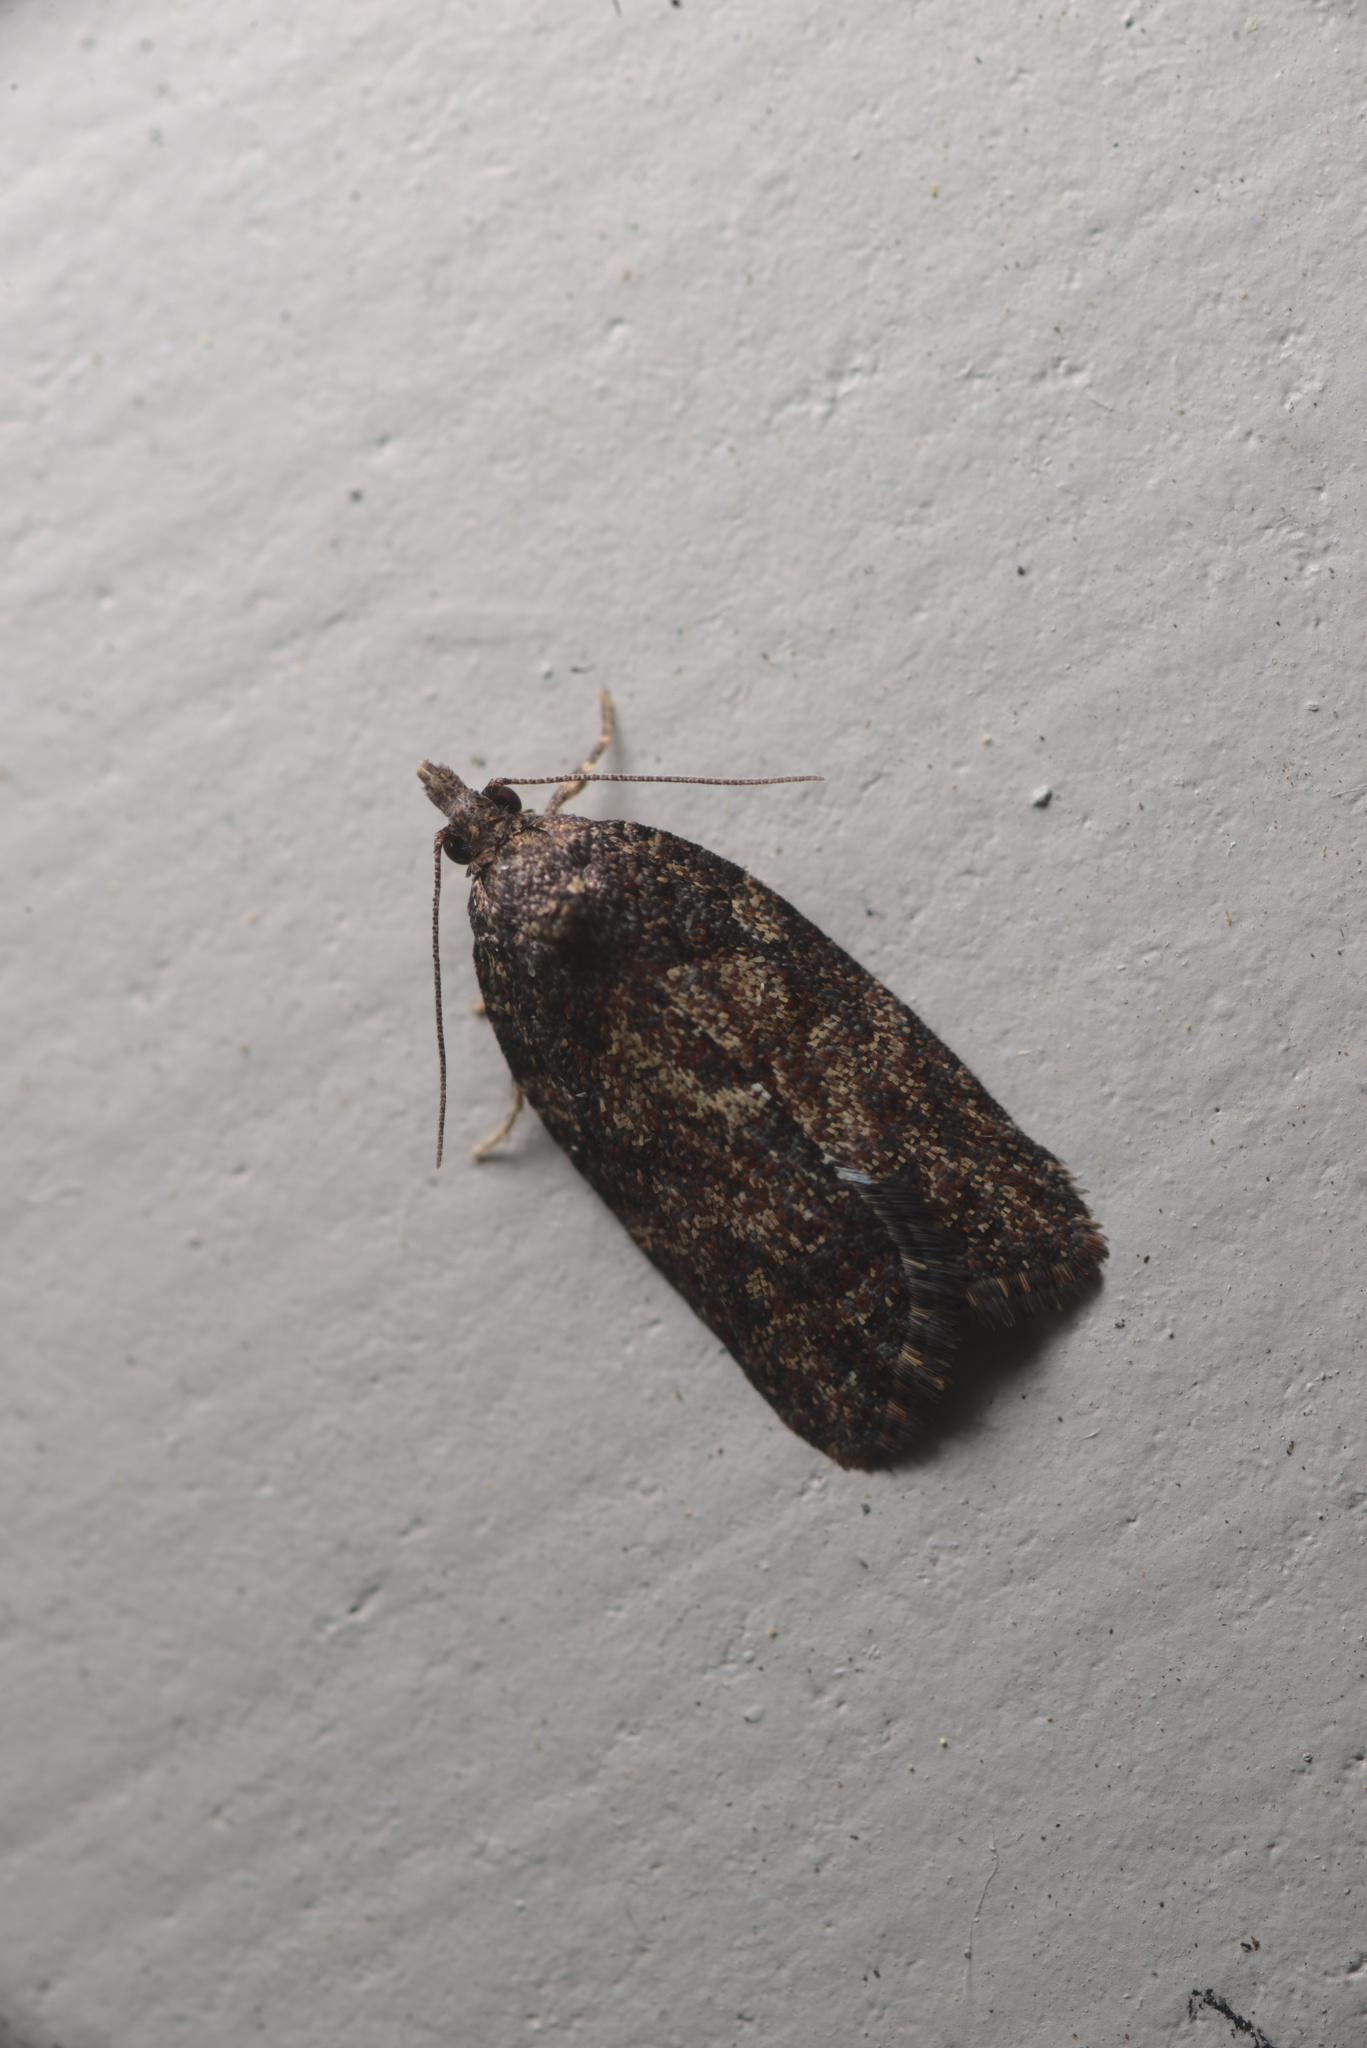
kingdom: Animalia
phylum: Arthropoda
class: Insecta
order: Lepidoptera
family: Tortricidae
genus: Capua
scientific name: Capua intractana
